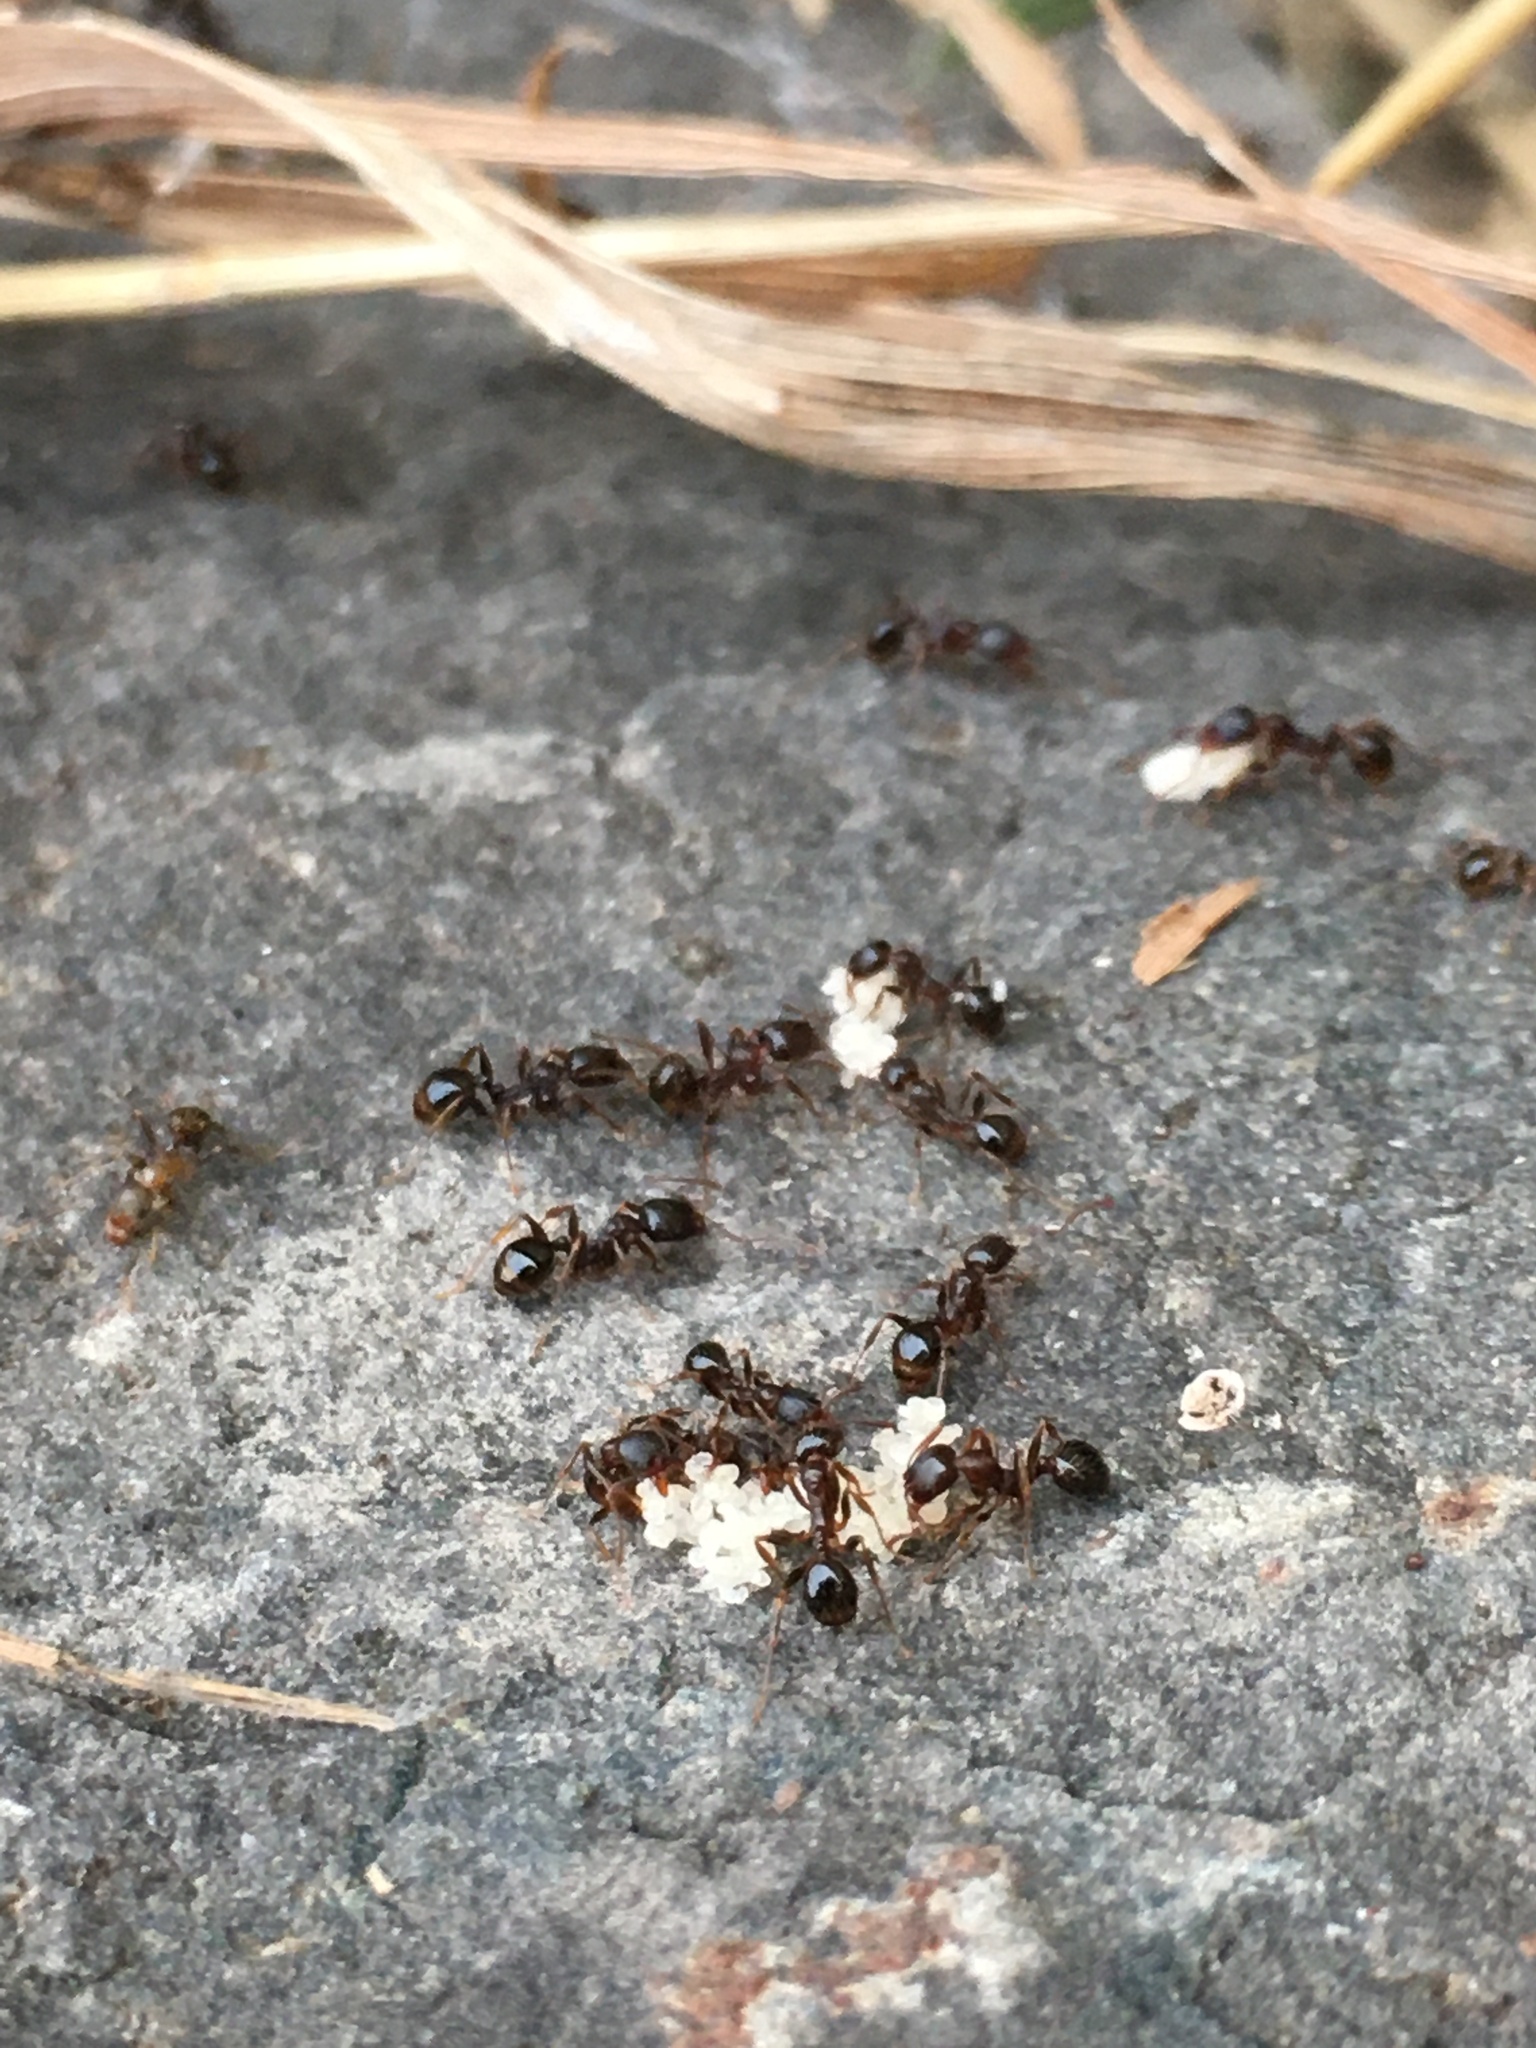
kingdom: Animalia
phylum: Arthropoda
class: Insecta
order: Hymenoptera
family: Formicidae
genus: Aphaenogaster
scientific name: Aphaenogaster occidentalis
